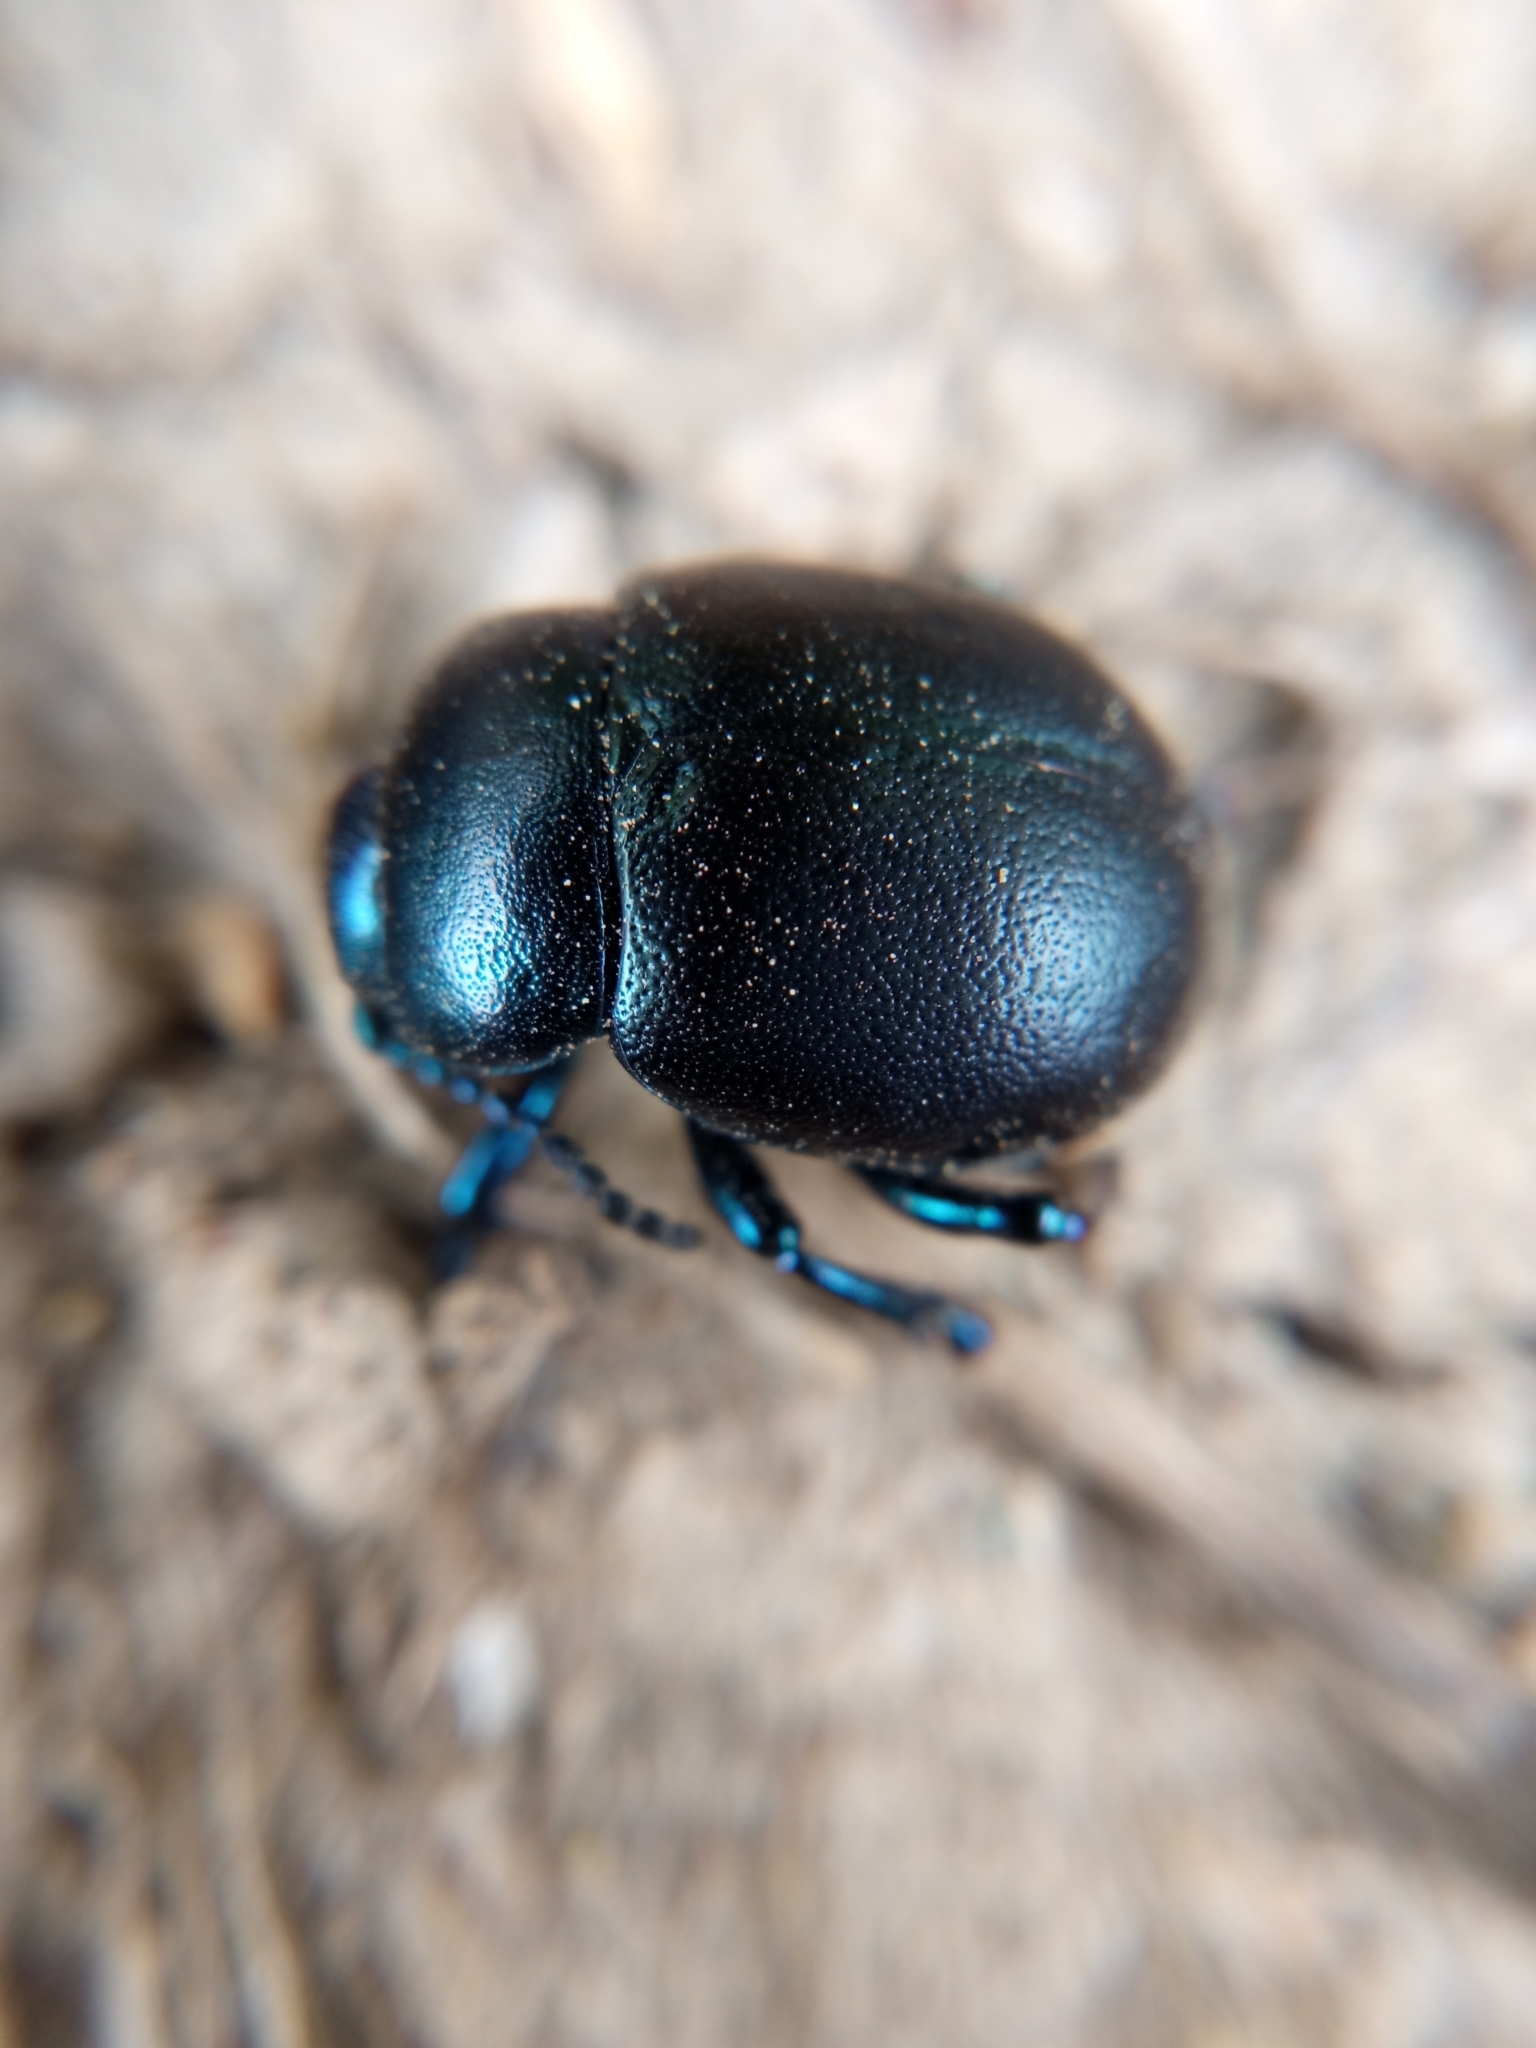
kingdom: Animalia
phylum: Arthropoda
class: Insecta
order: Coleoptera
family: Chrysomelidae
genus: Timarcha
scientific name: Timarcha goettingensis
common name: Small bloody-nosed beetle
